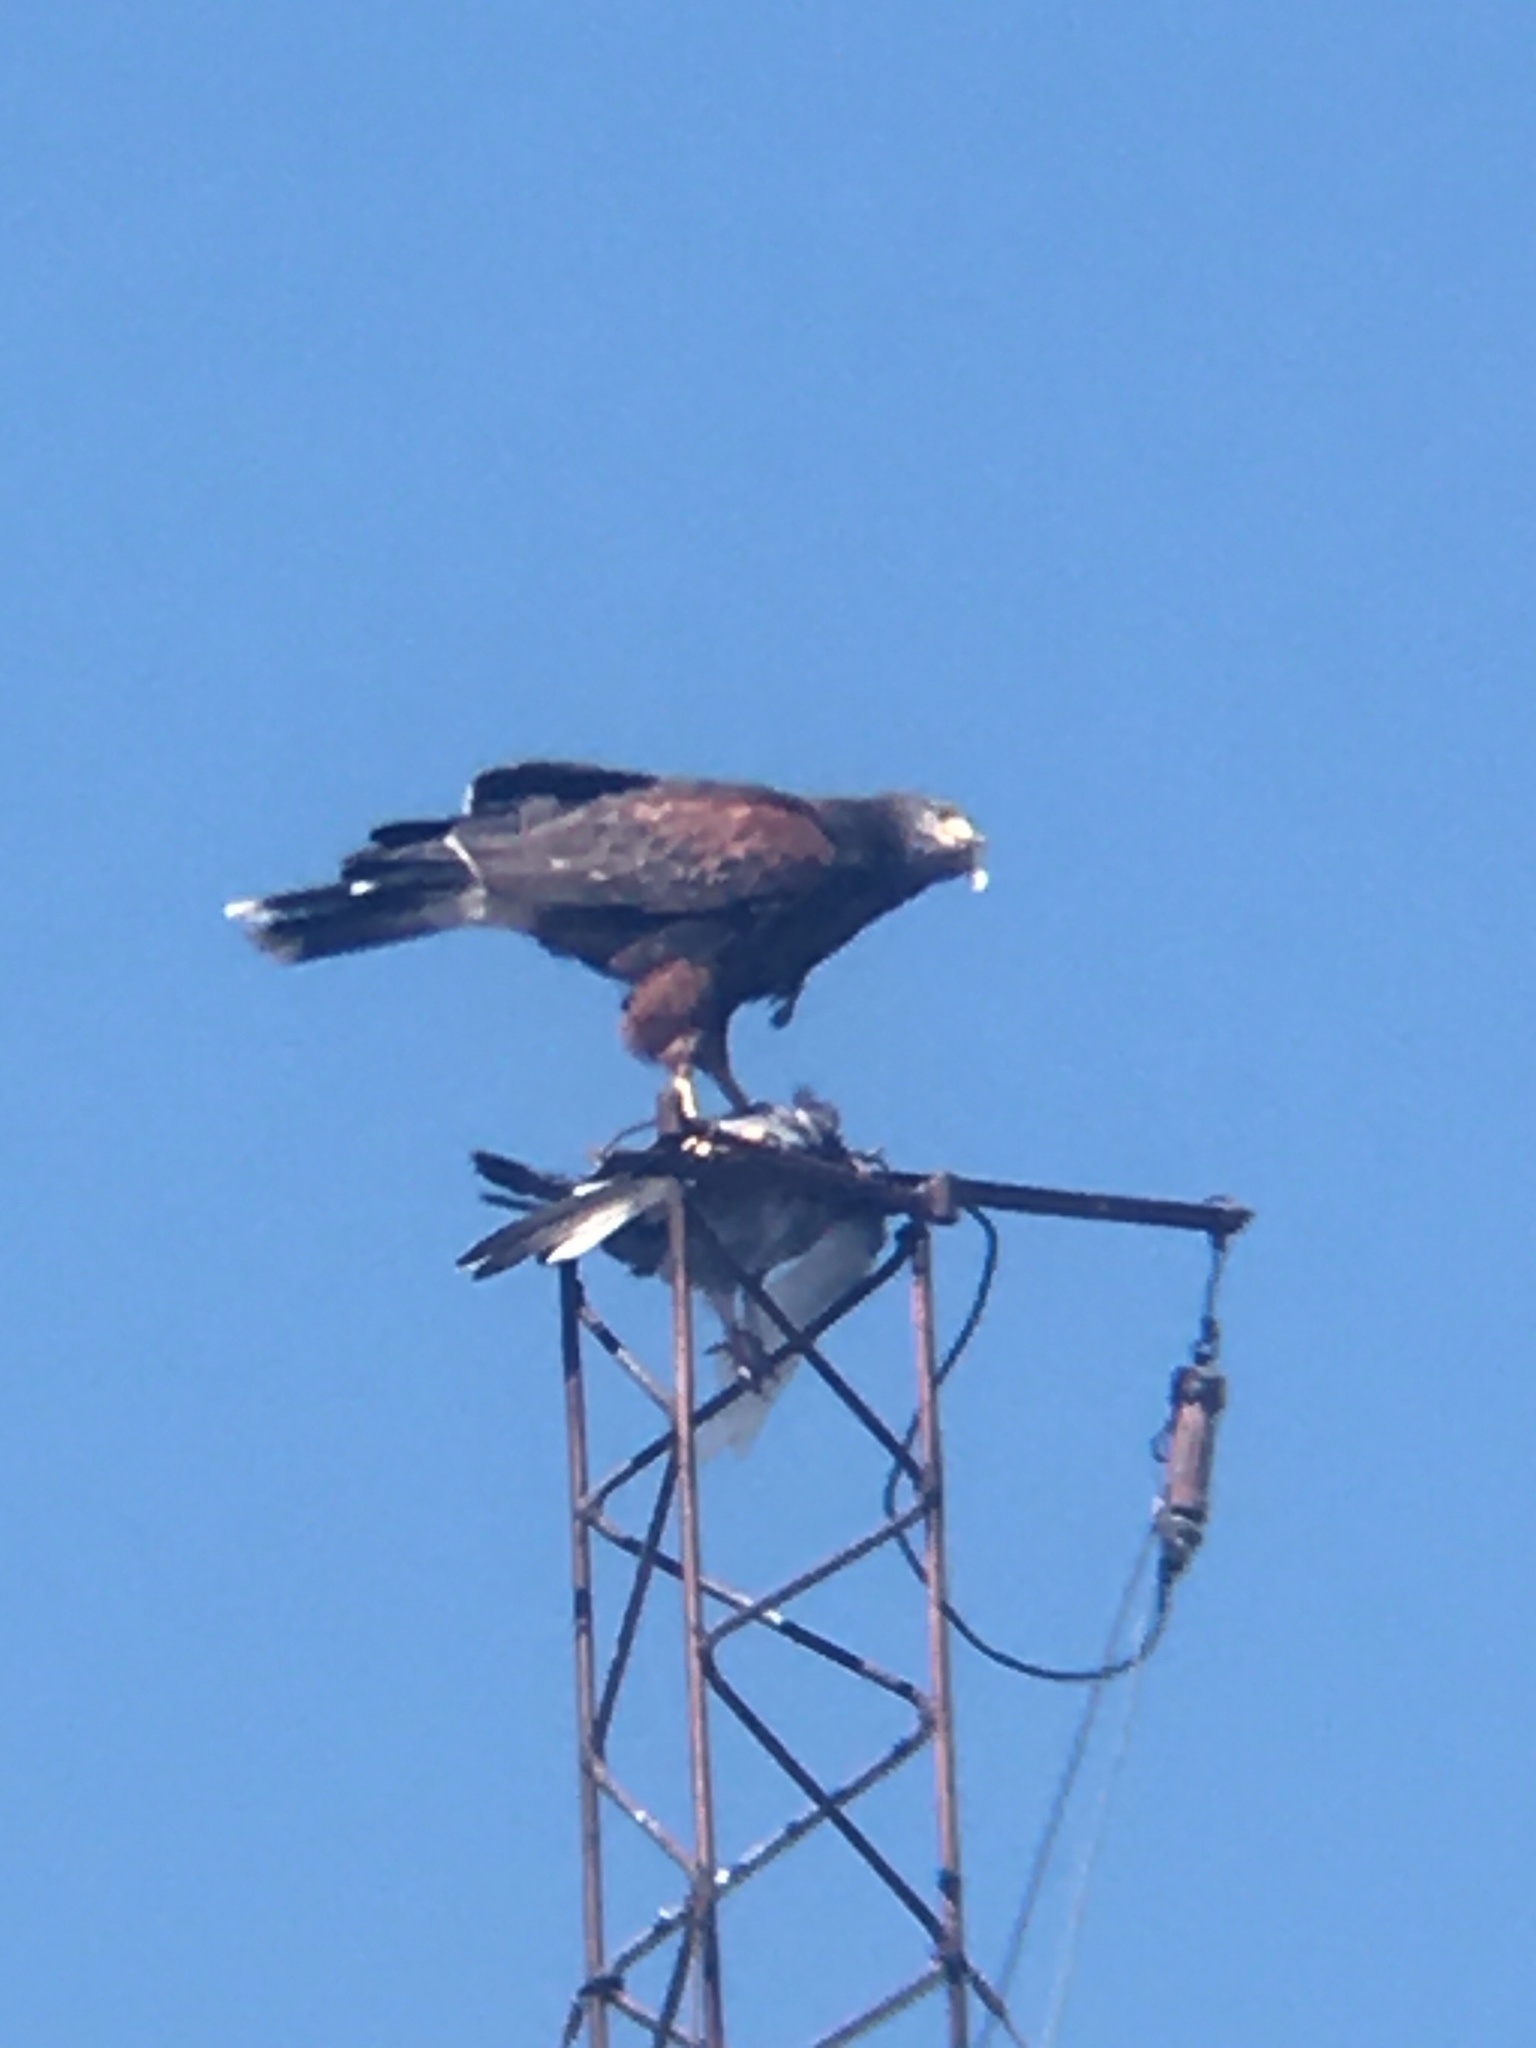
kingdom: Animalia
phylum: Chordata
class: Aves
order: Accipitriformes
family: Accipitridae
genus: Parabuteo
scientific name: Parabuteo unicinctus
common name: Harris's hawk
